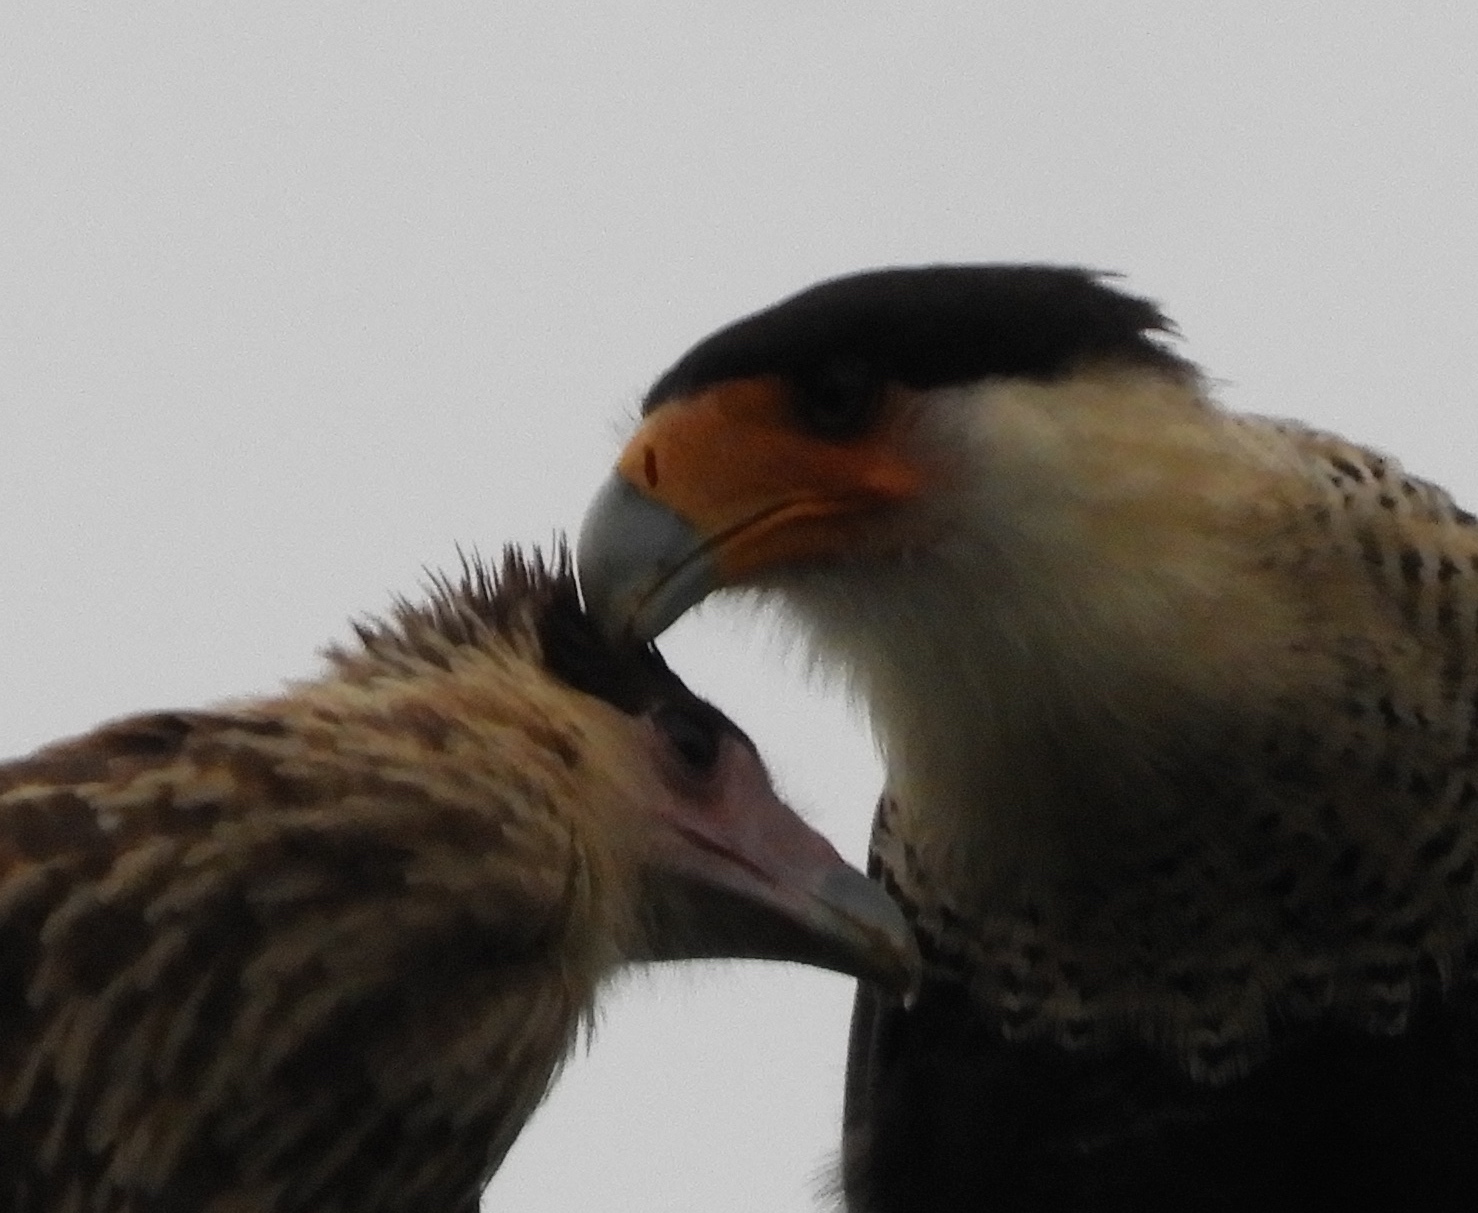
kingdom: Animalia
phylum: Chordata
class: Aves
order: Falconiformes
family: Falconidae
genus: Caracara
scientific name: Caracara plancus
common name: Southern caracara
